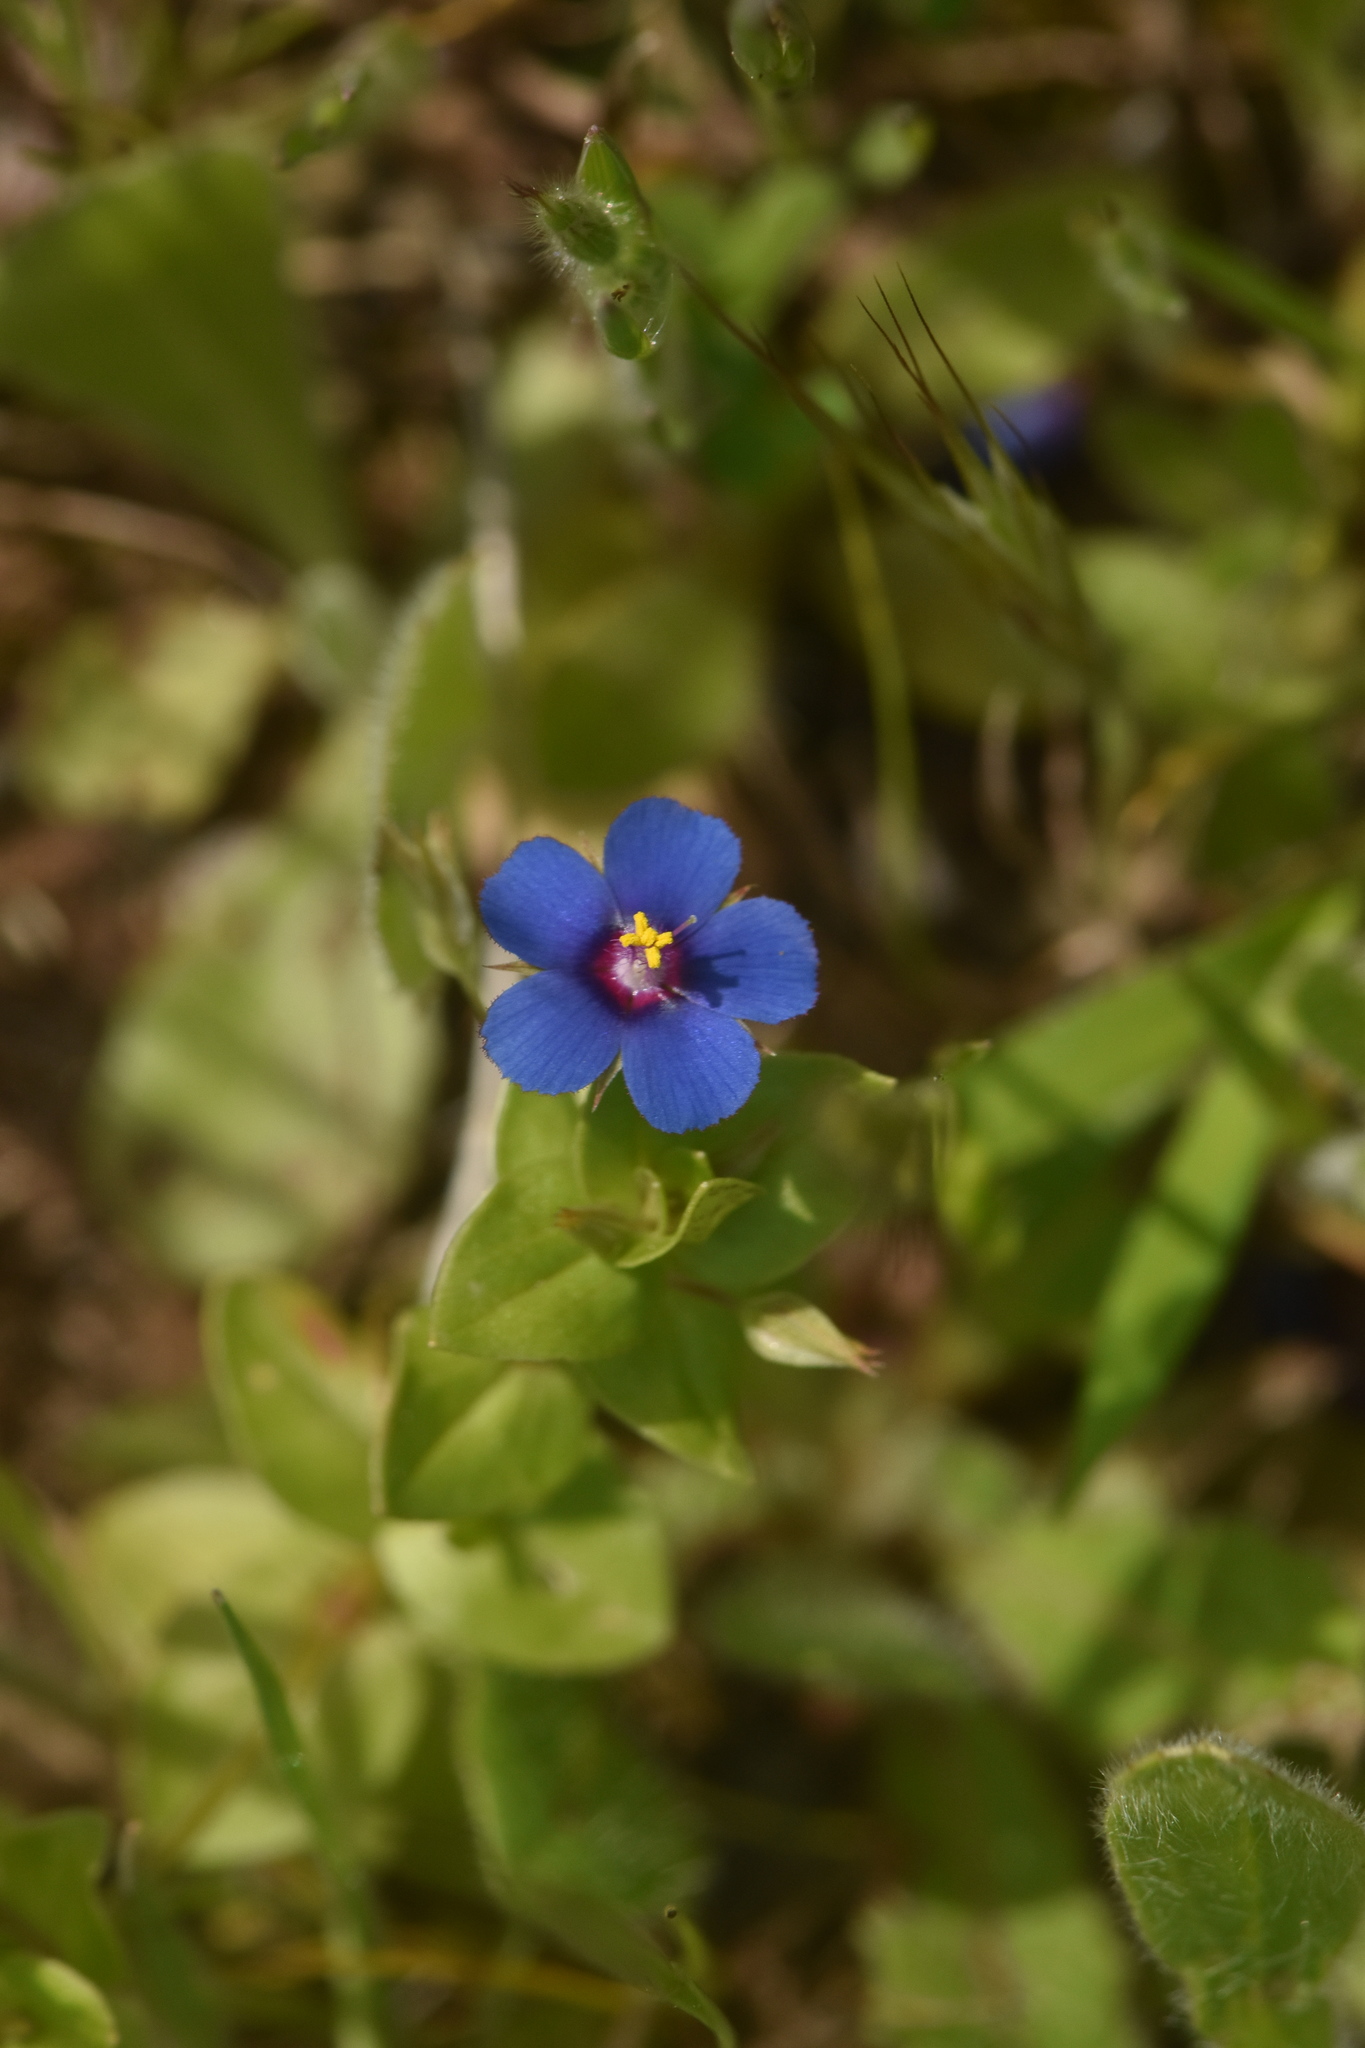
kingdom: Plantae
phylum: Tracheophyta
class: Magnoliopsida
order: Ericales
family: Primulaceae
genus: Lysimachia
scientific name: Lysimachia arvensis
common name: Scarlet pimpernel
